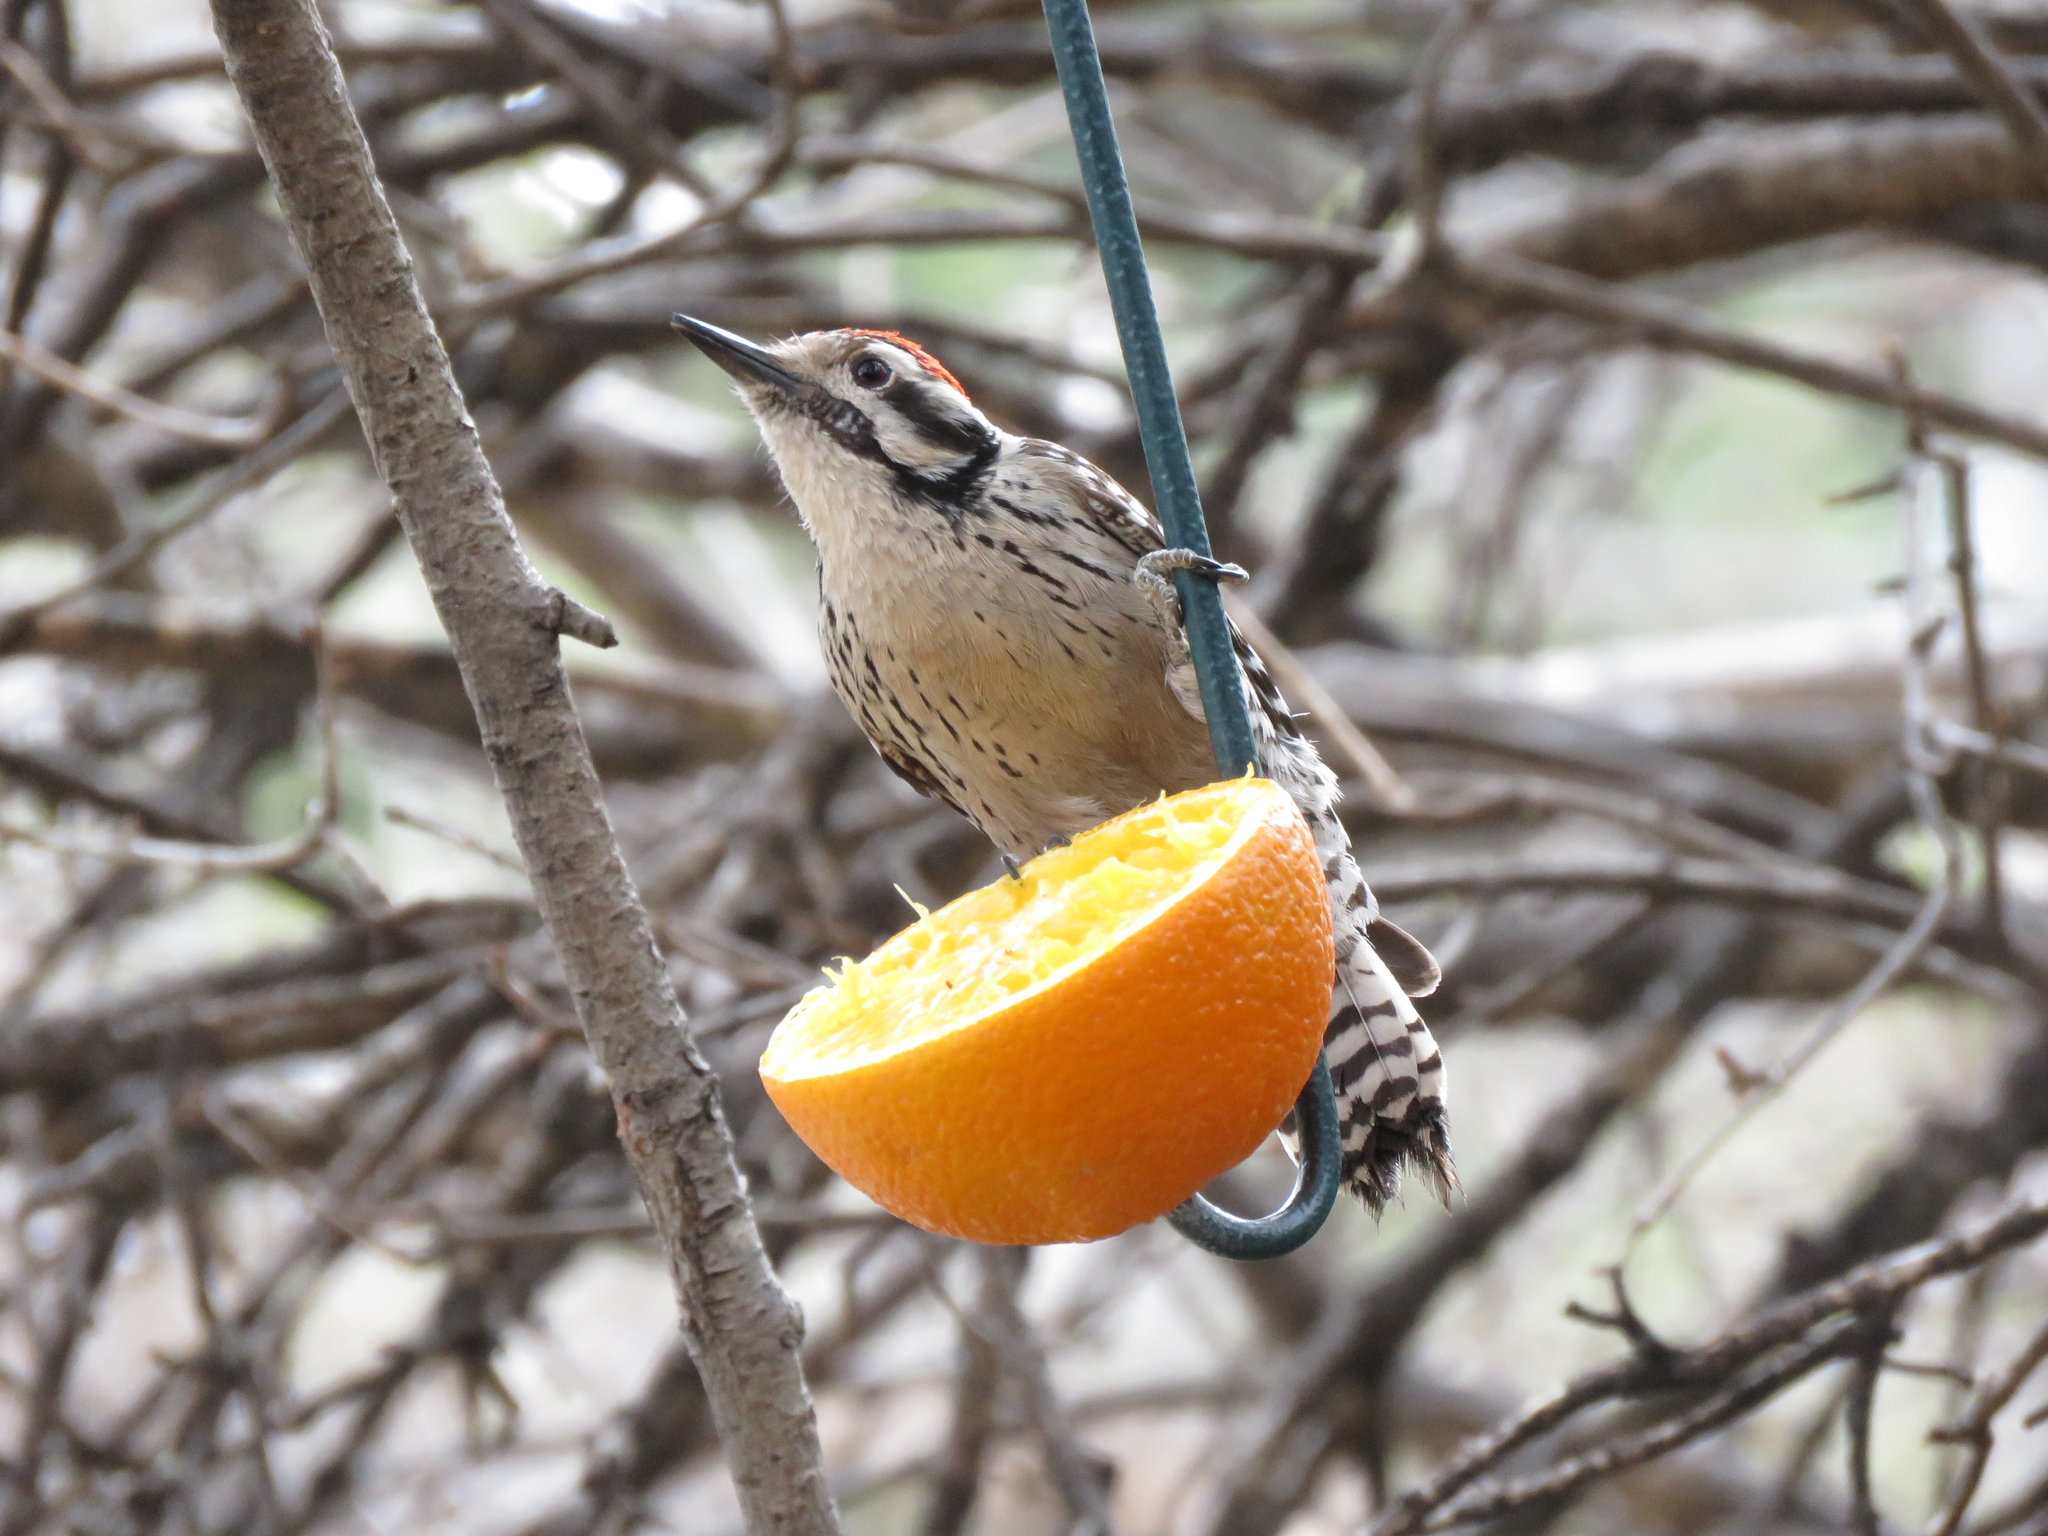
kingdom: Animalia
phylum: Chordata
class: Aves
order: Piciformes
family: Picidae
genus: Dryobates
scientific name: Dryobates scalaris
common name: Ladder-backed woodpecker
